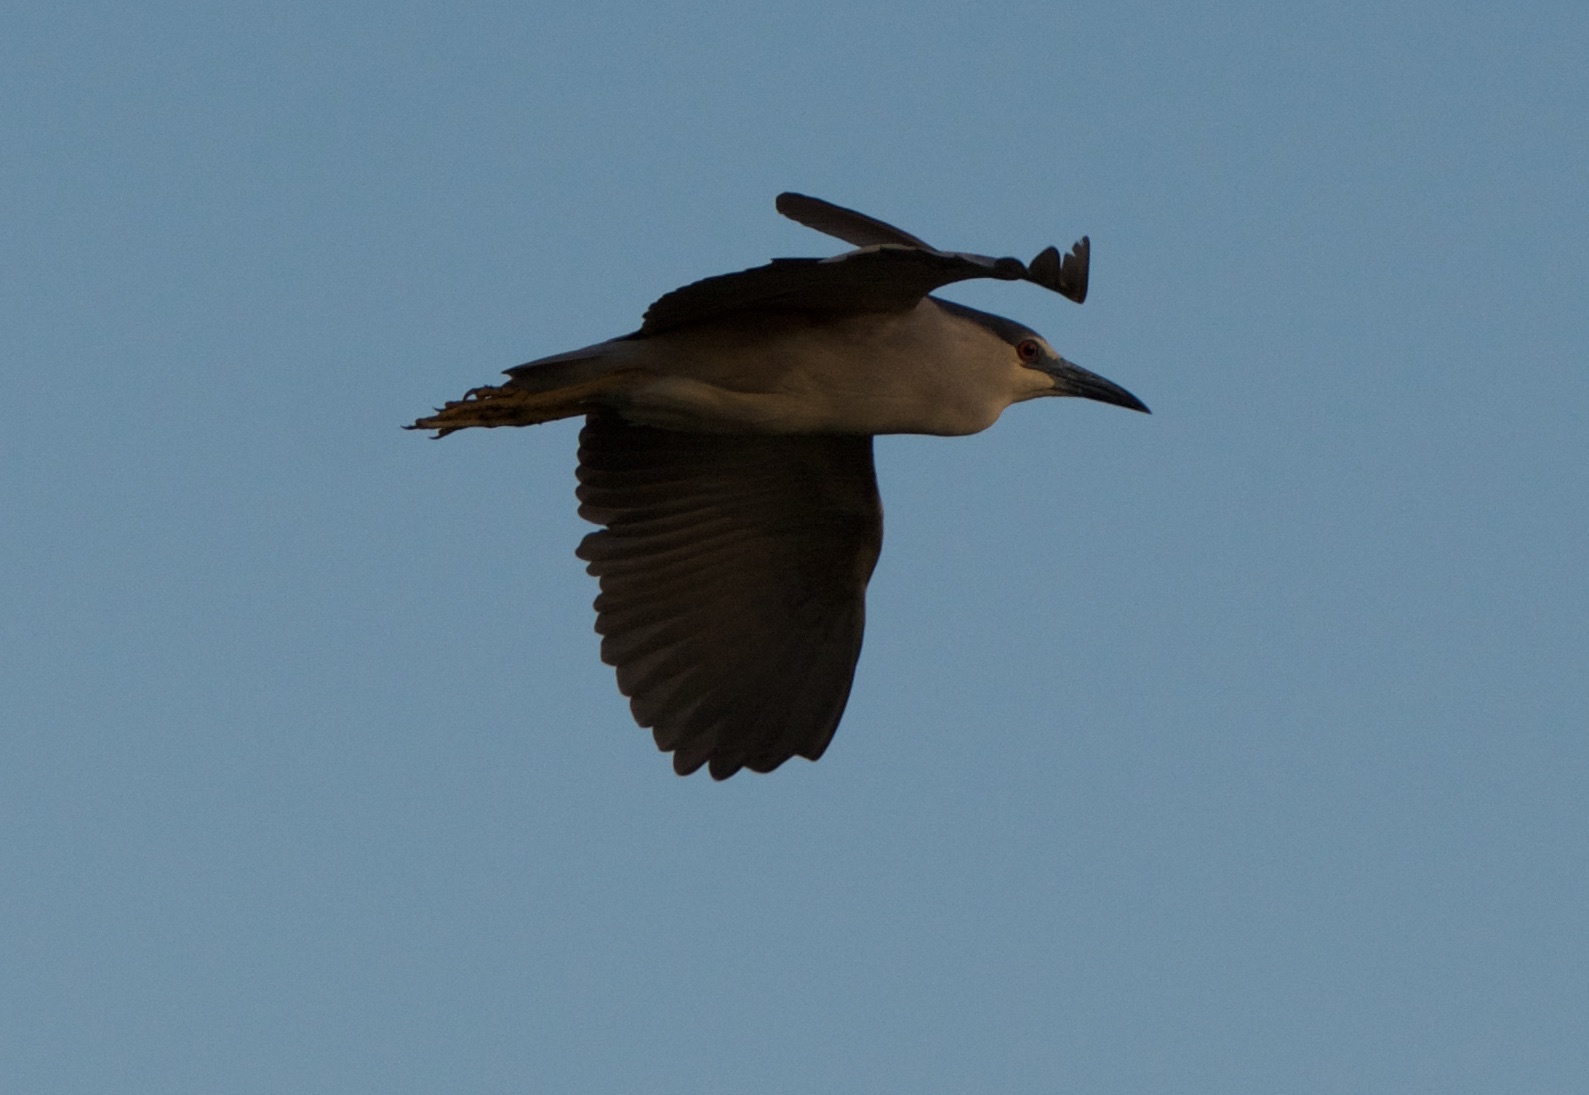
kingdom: Animalia
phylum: Chordata
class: Aves
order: Pelecaniformes
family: Ardeidae
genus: Nycticorax
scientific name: Nycticorax nycticorax
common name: Black-crowned night heron
